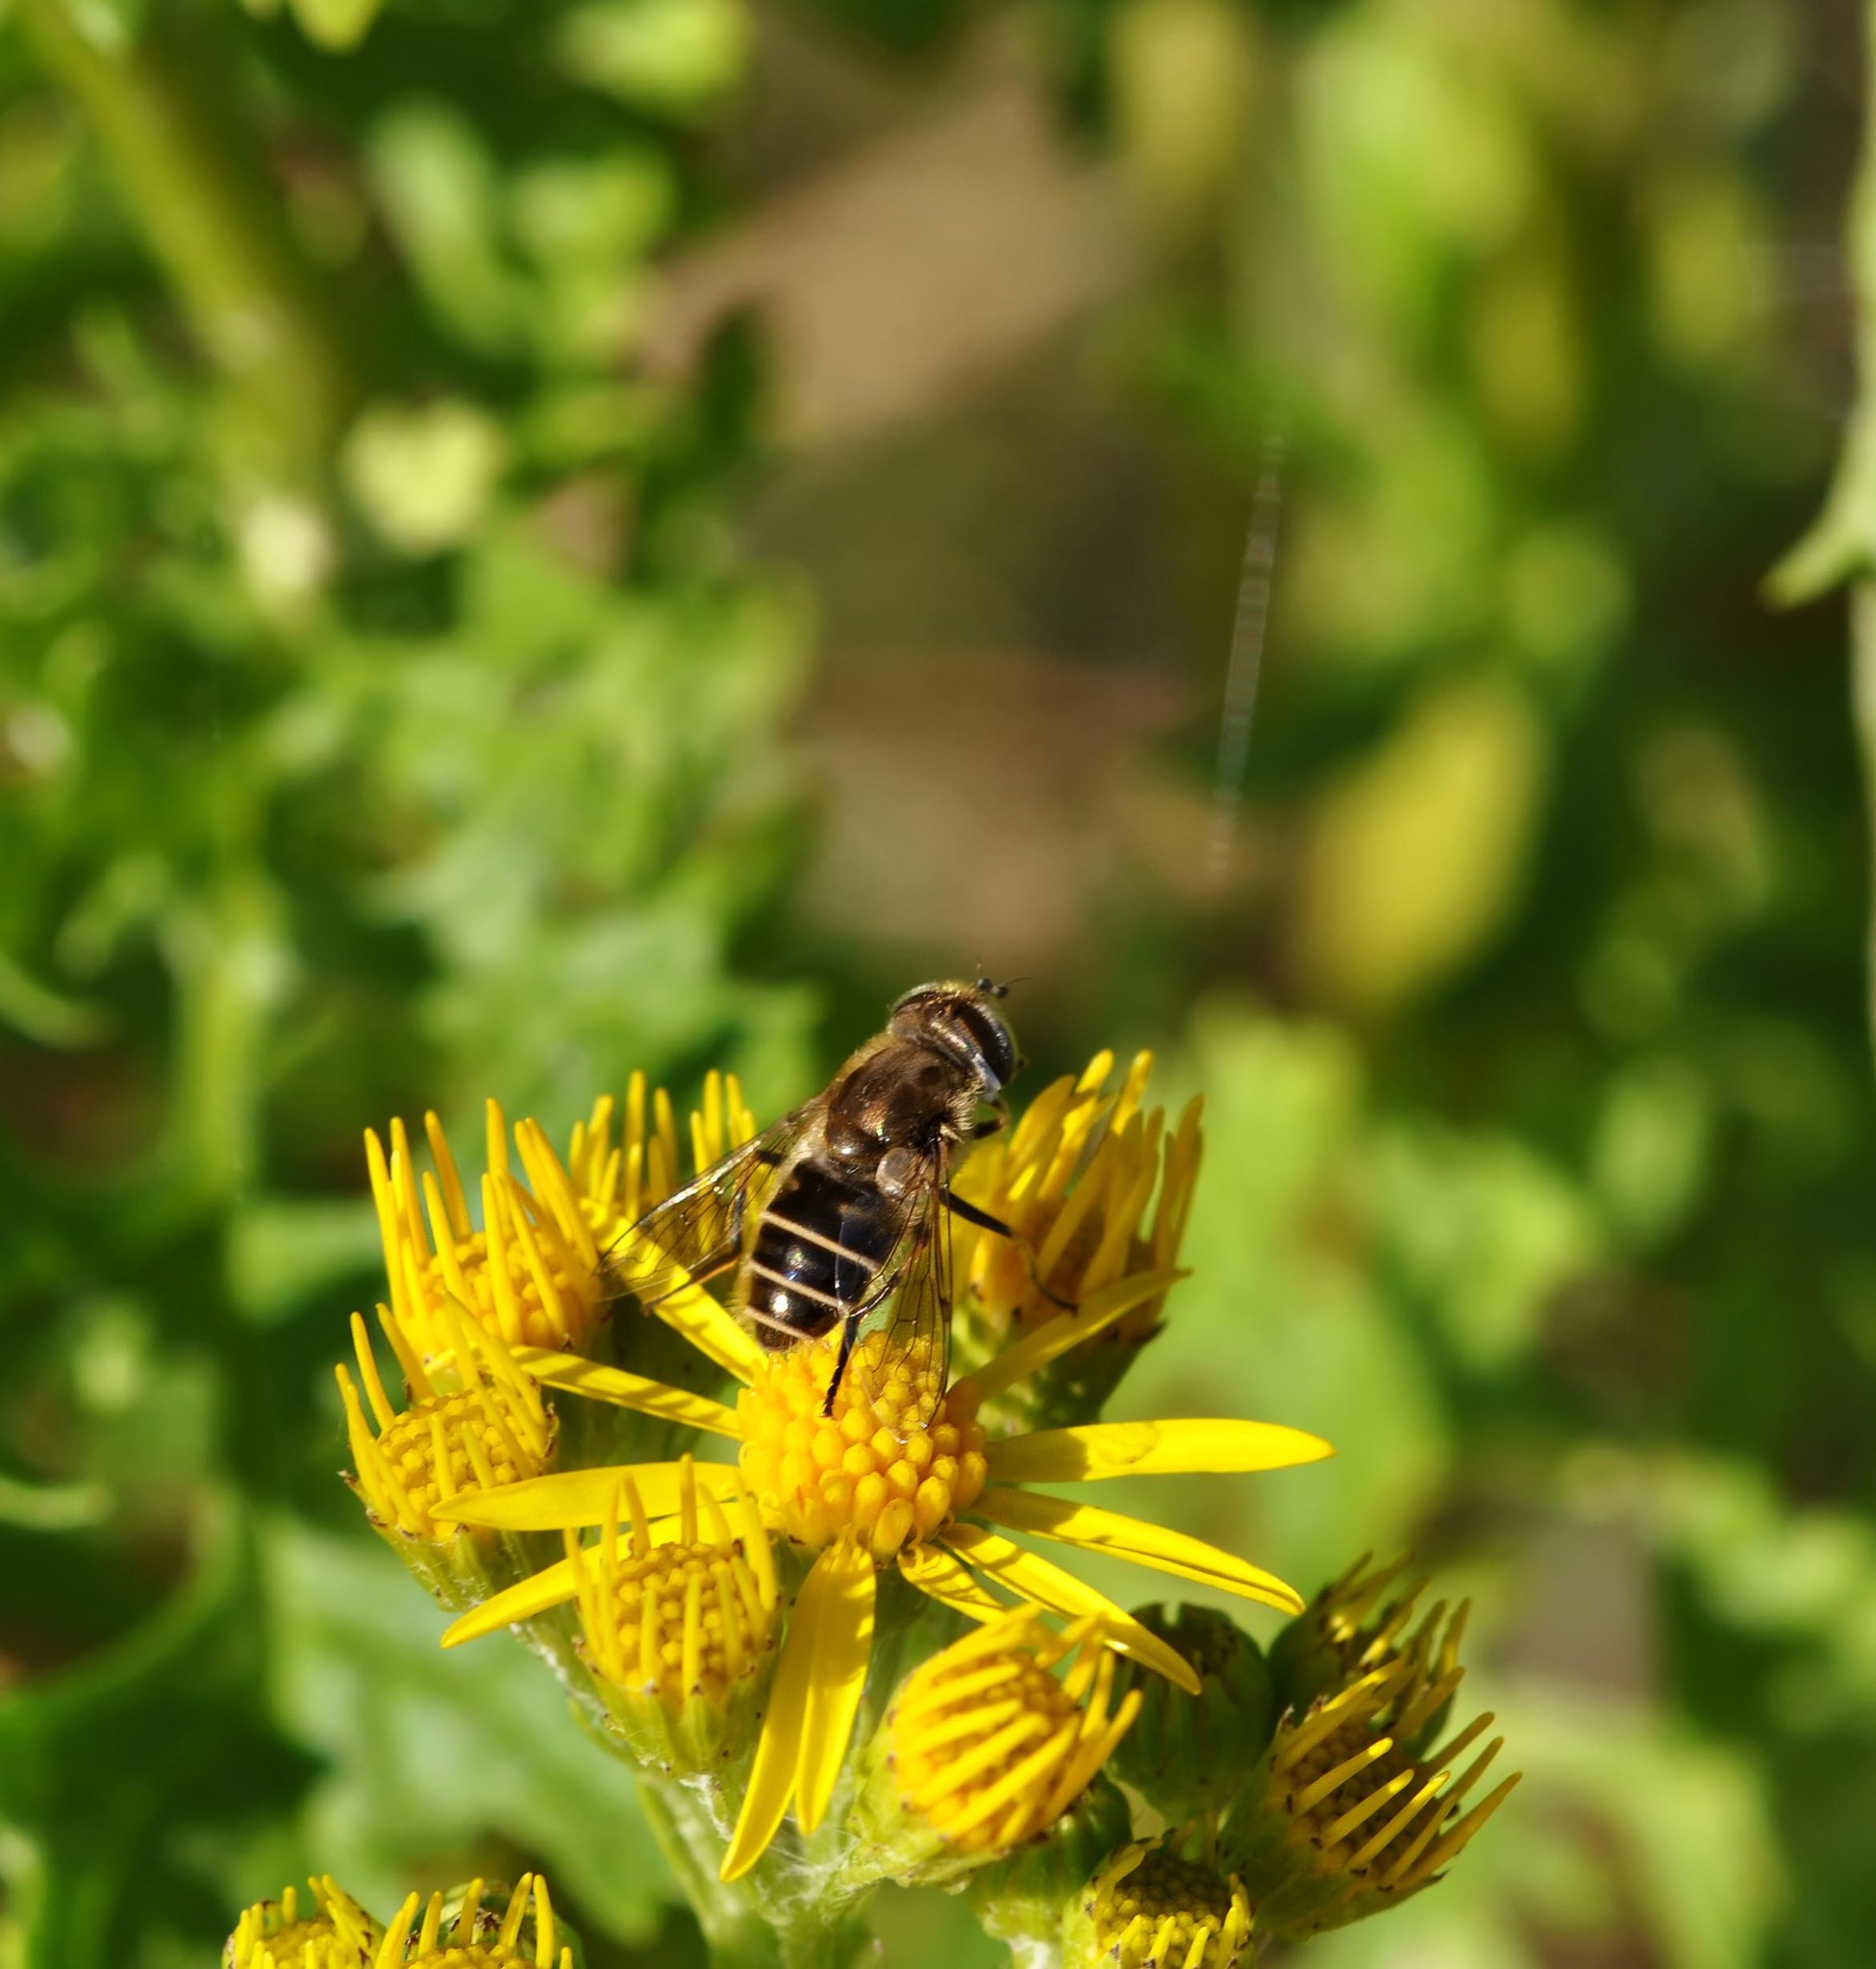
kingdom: Animalia
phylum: Arthropoda
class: Insecta
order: Diptera
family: Syrphidae
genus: Eoseristalis
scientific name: Eoseristalis
